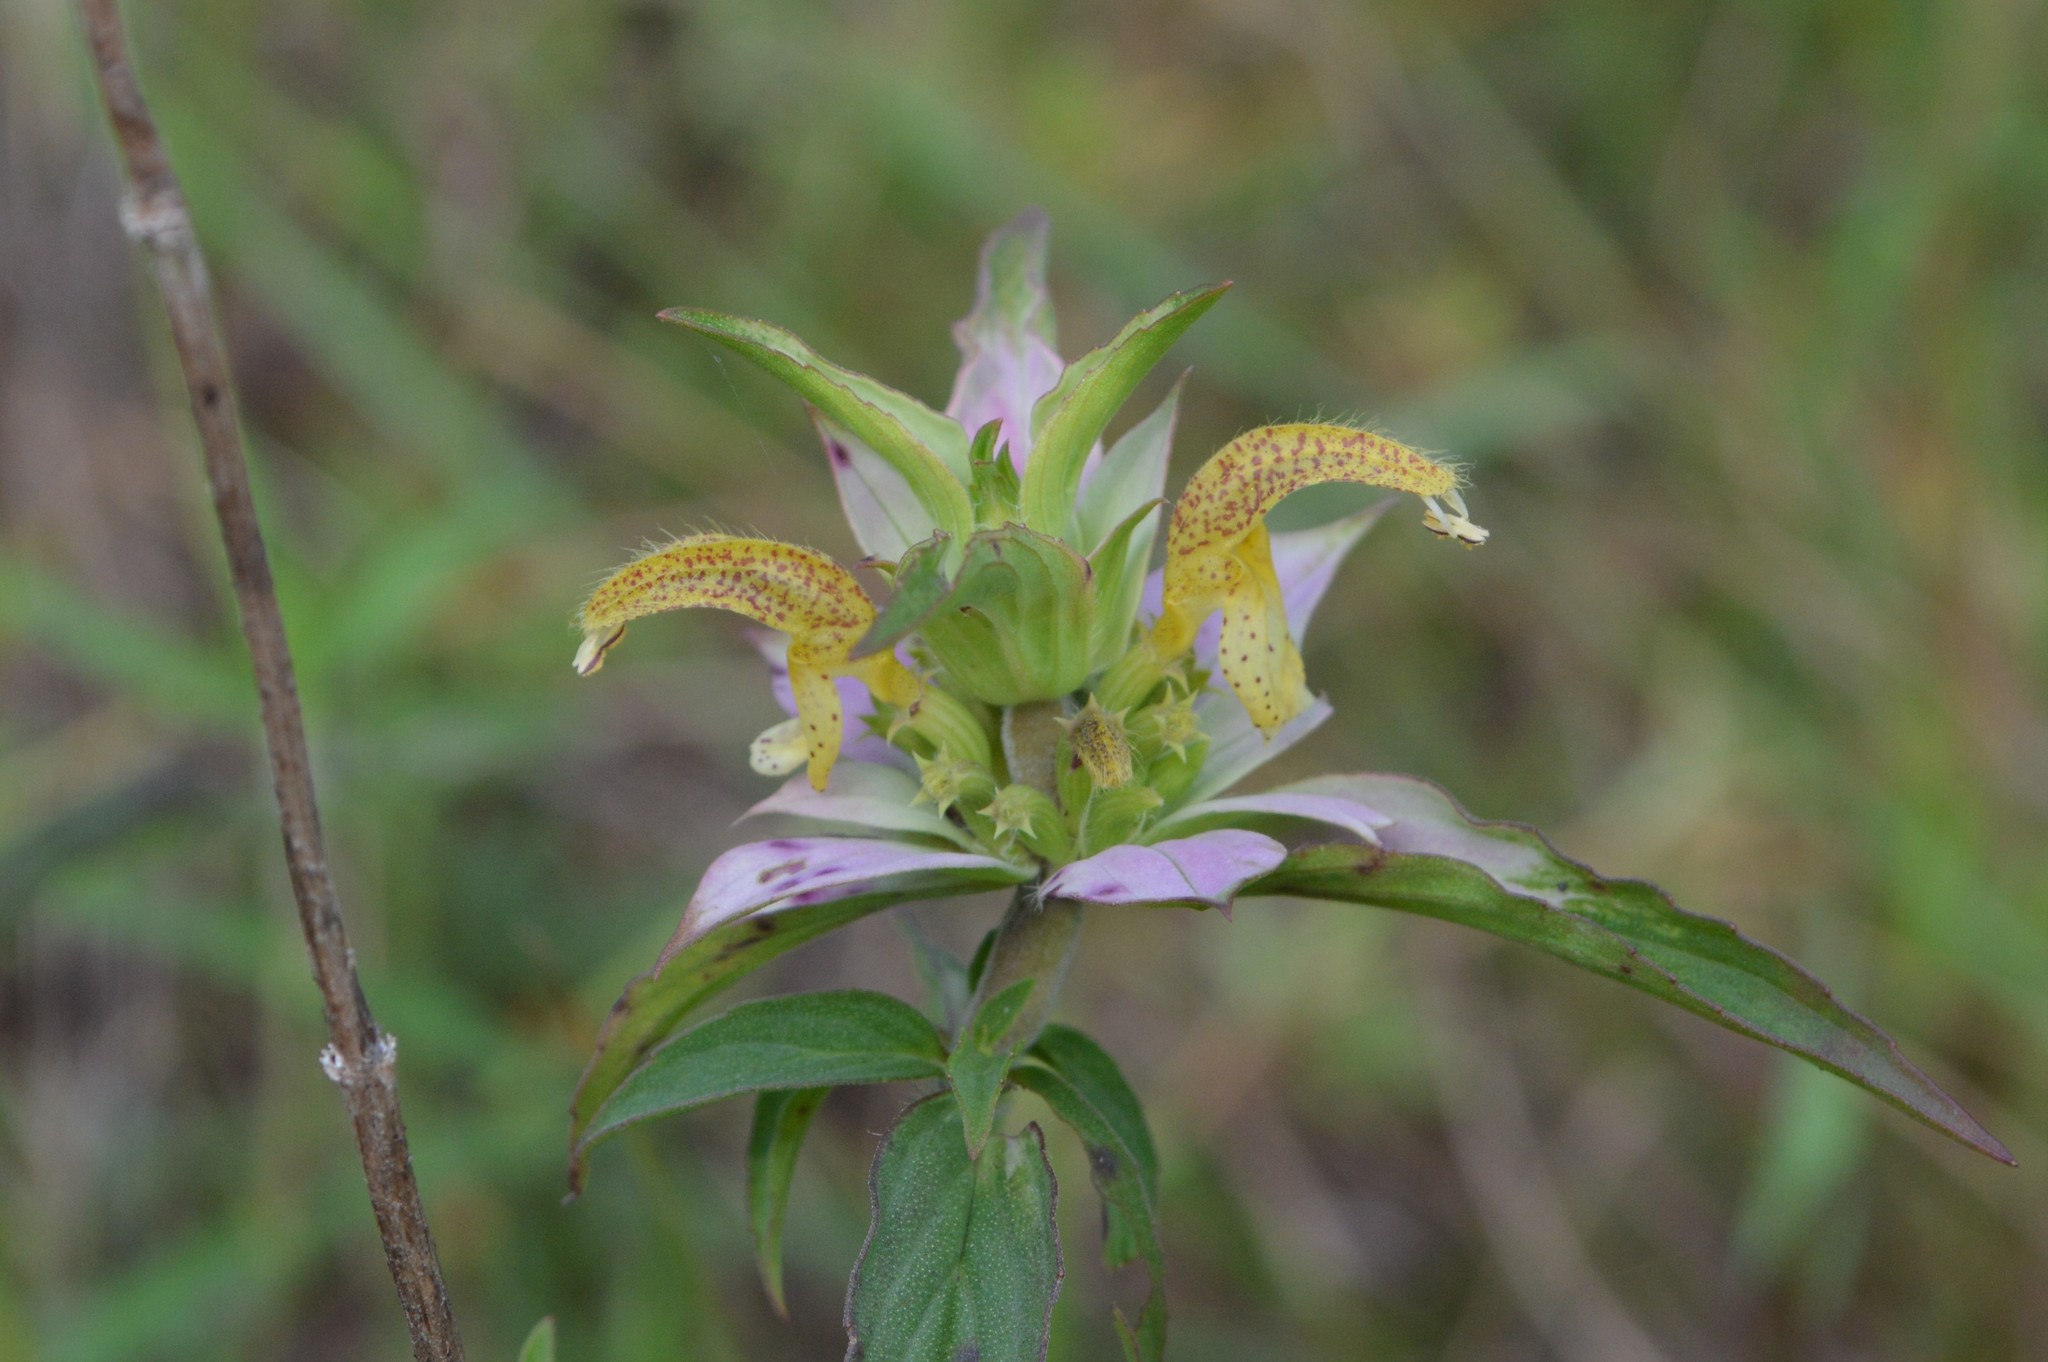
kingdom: Plantae
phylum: Tracheophyta
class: Magnoliopsida
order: Lamiales
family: Lamiaceae
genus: Monarda
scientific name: Monarda punctata
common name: Dotted monarda
